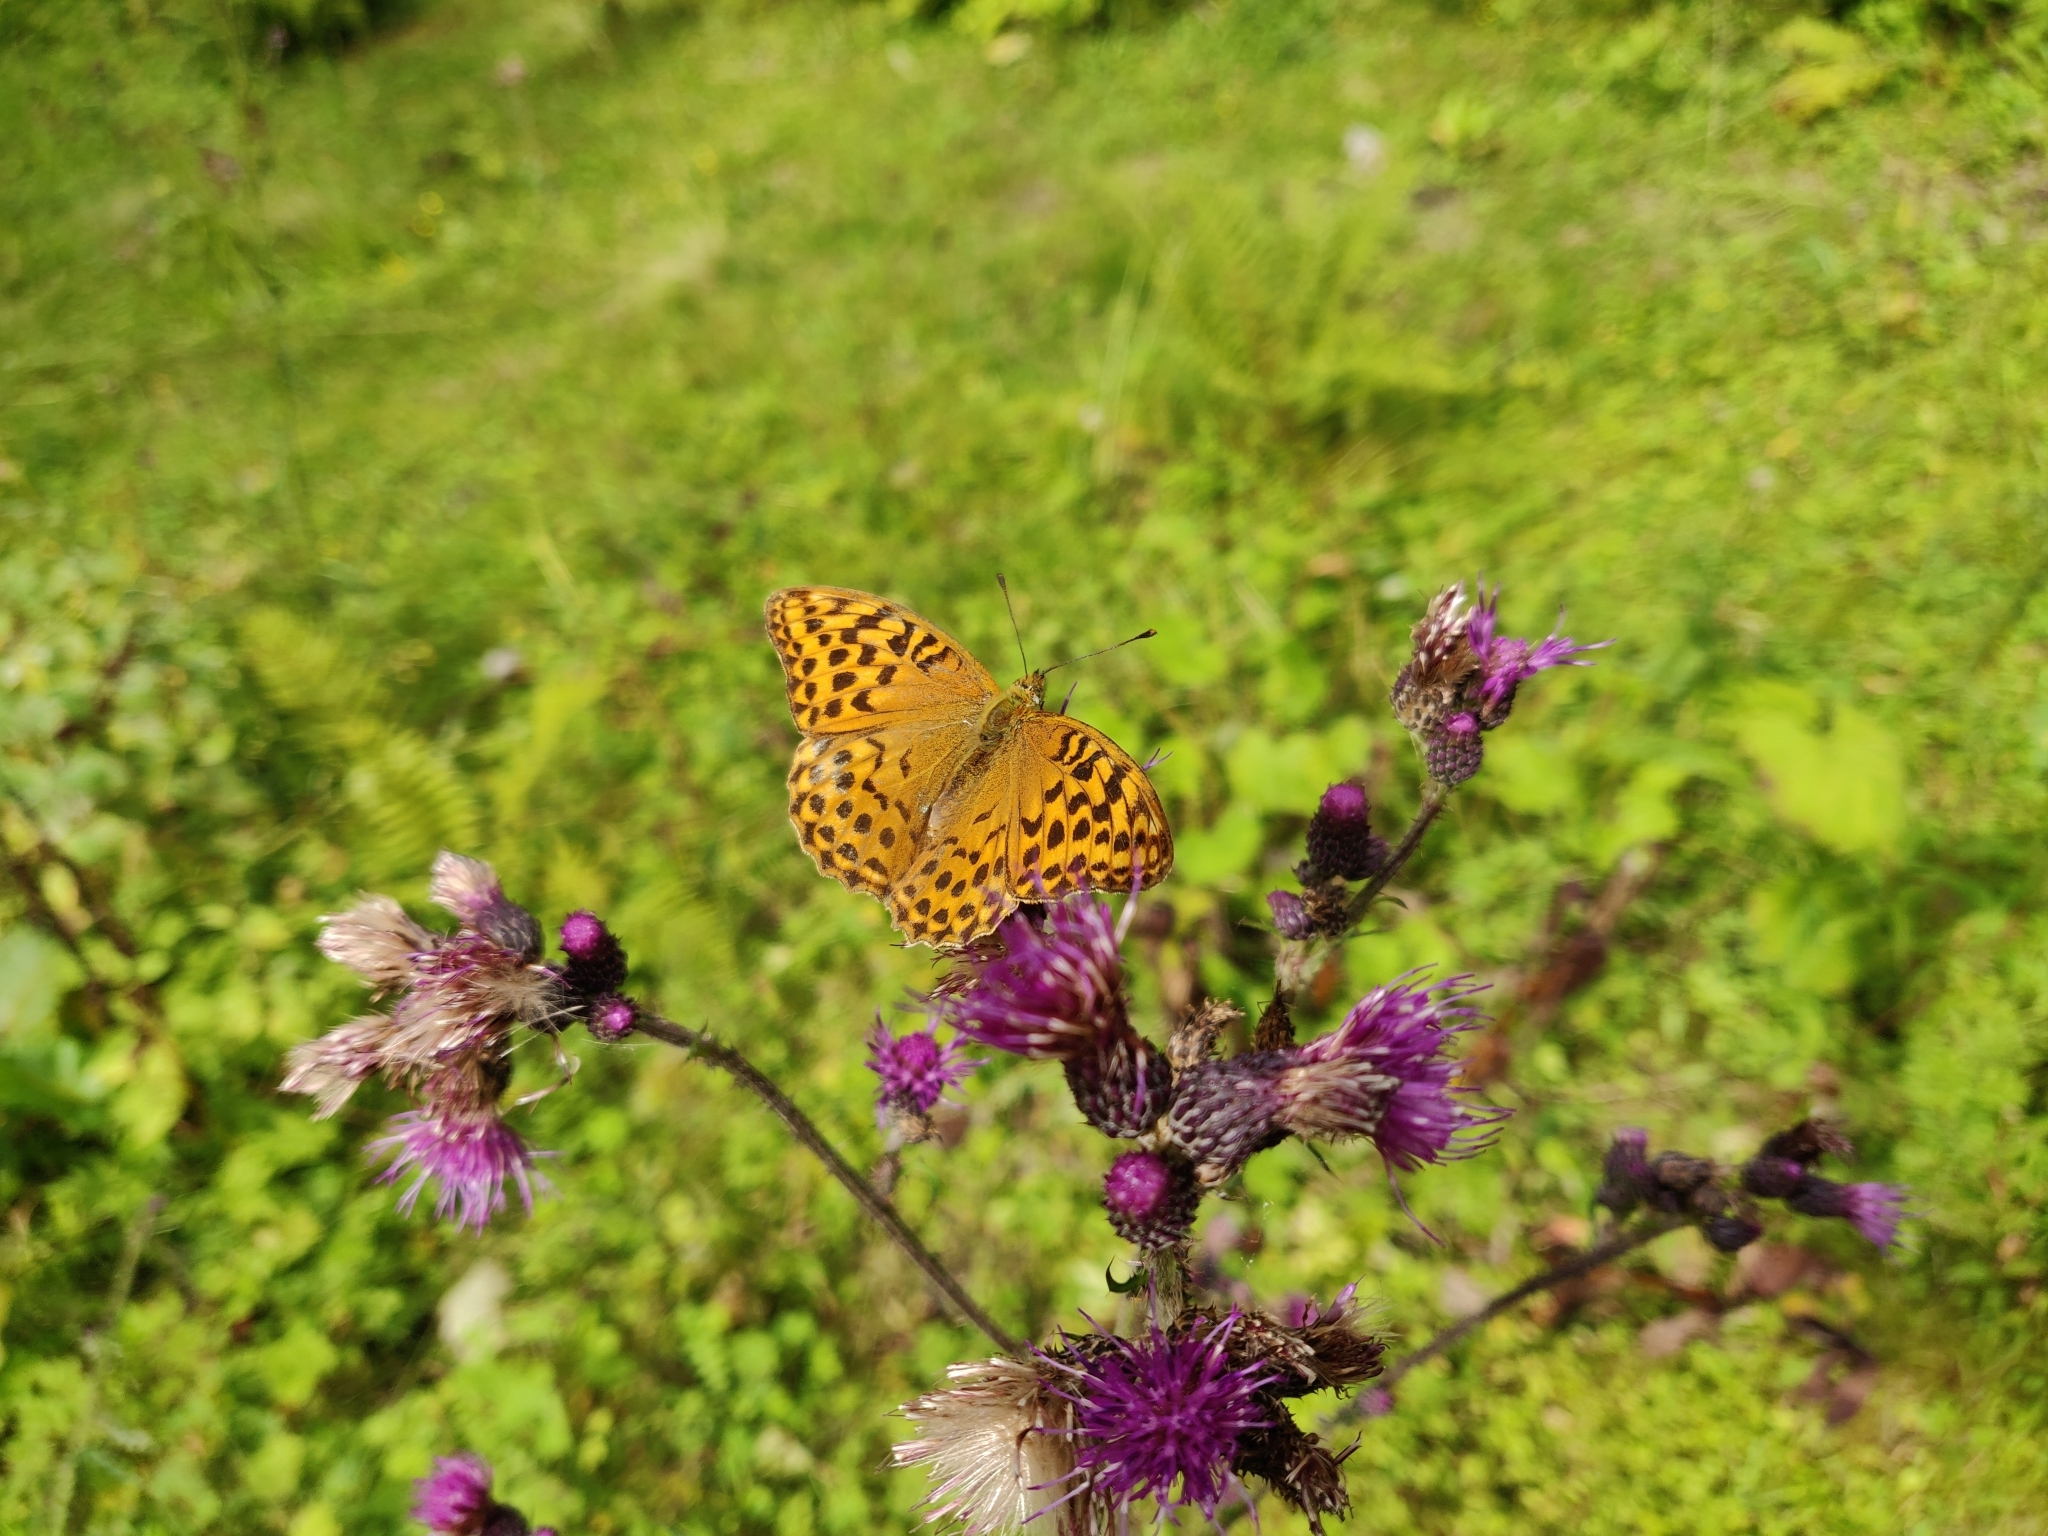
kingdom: Animalia
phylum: Arthropoda
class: Insecta
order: Lepidoptera
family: Nymphalidae
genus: Argynnis
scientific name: Argynnis paphia
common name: Silver-washed fritillary
